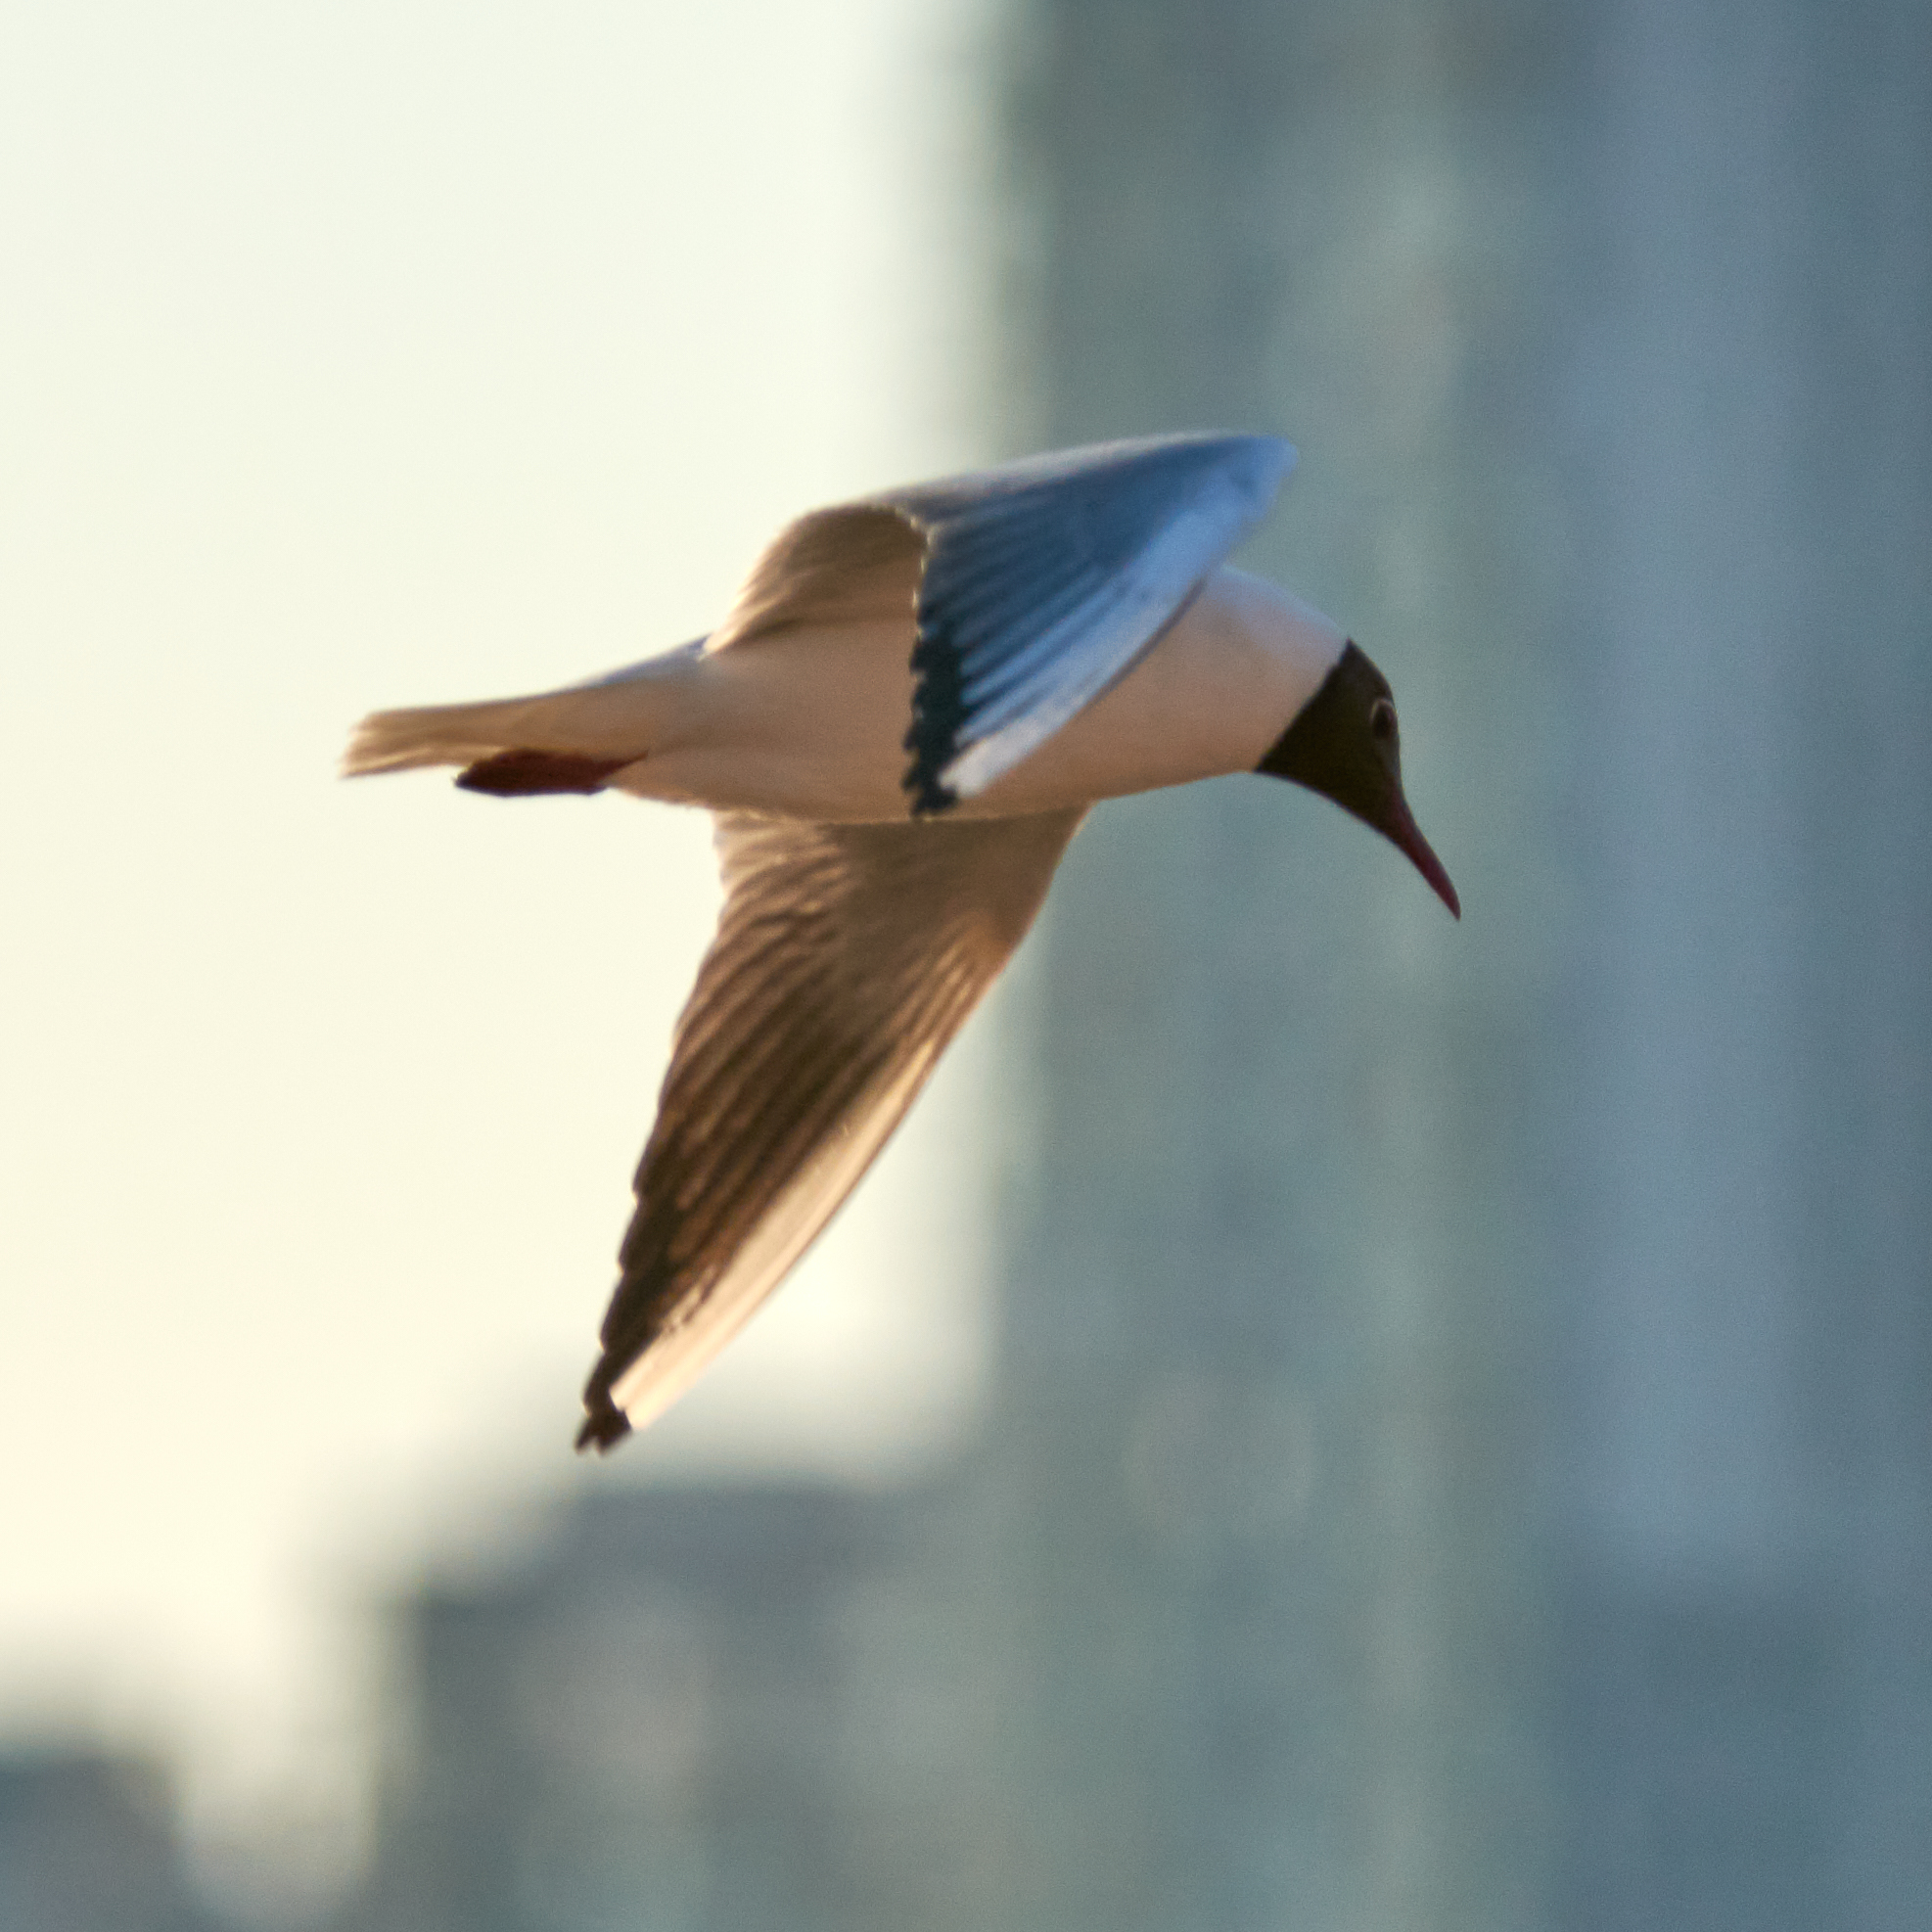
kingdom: Animalia
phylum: Chordata
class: Aves
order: Charadriiformes
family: Laridae
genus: Chroicocephalus
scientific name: Chroicocephalus ridibundus
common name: Black-headed gull
